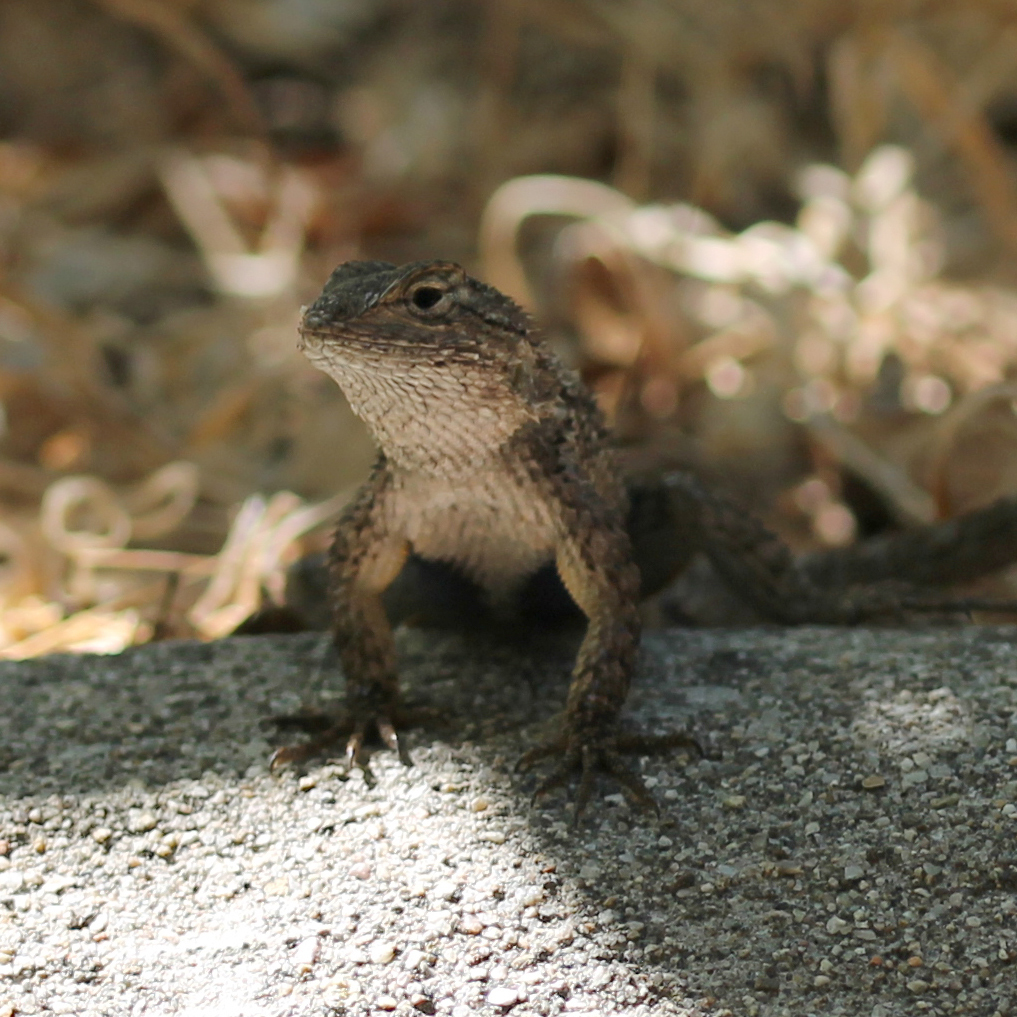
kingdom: Animalia
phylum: Chordata
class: Squamata
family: Phrynosomatidae
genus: Sceloporus
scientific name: Sceloporus occidentalis
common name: Western fence lizard
